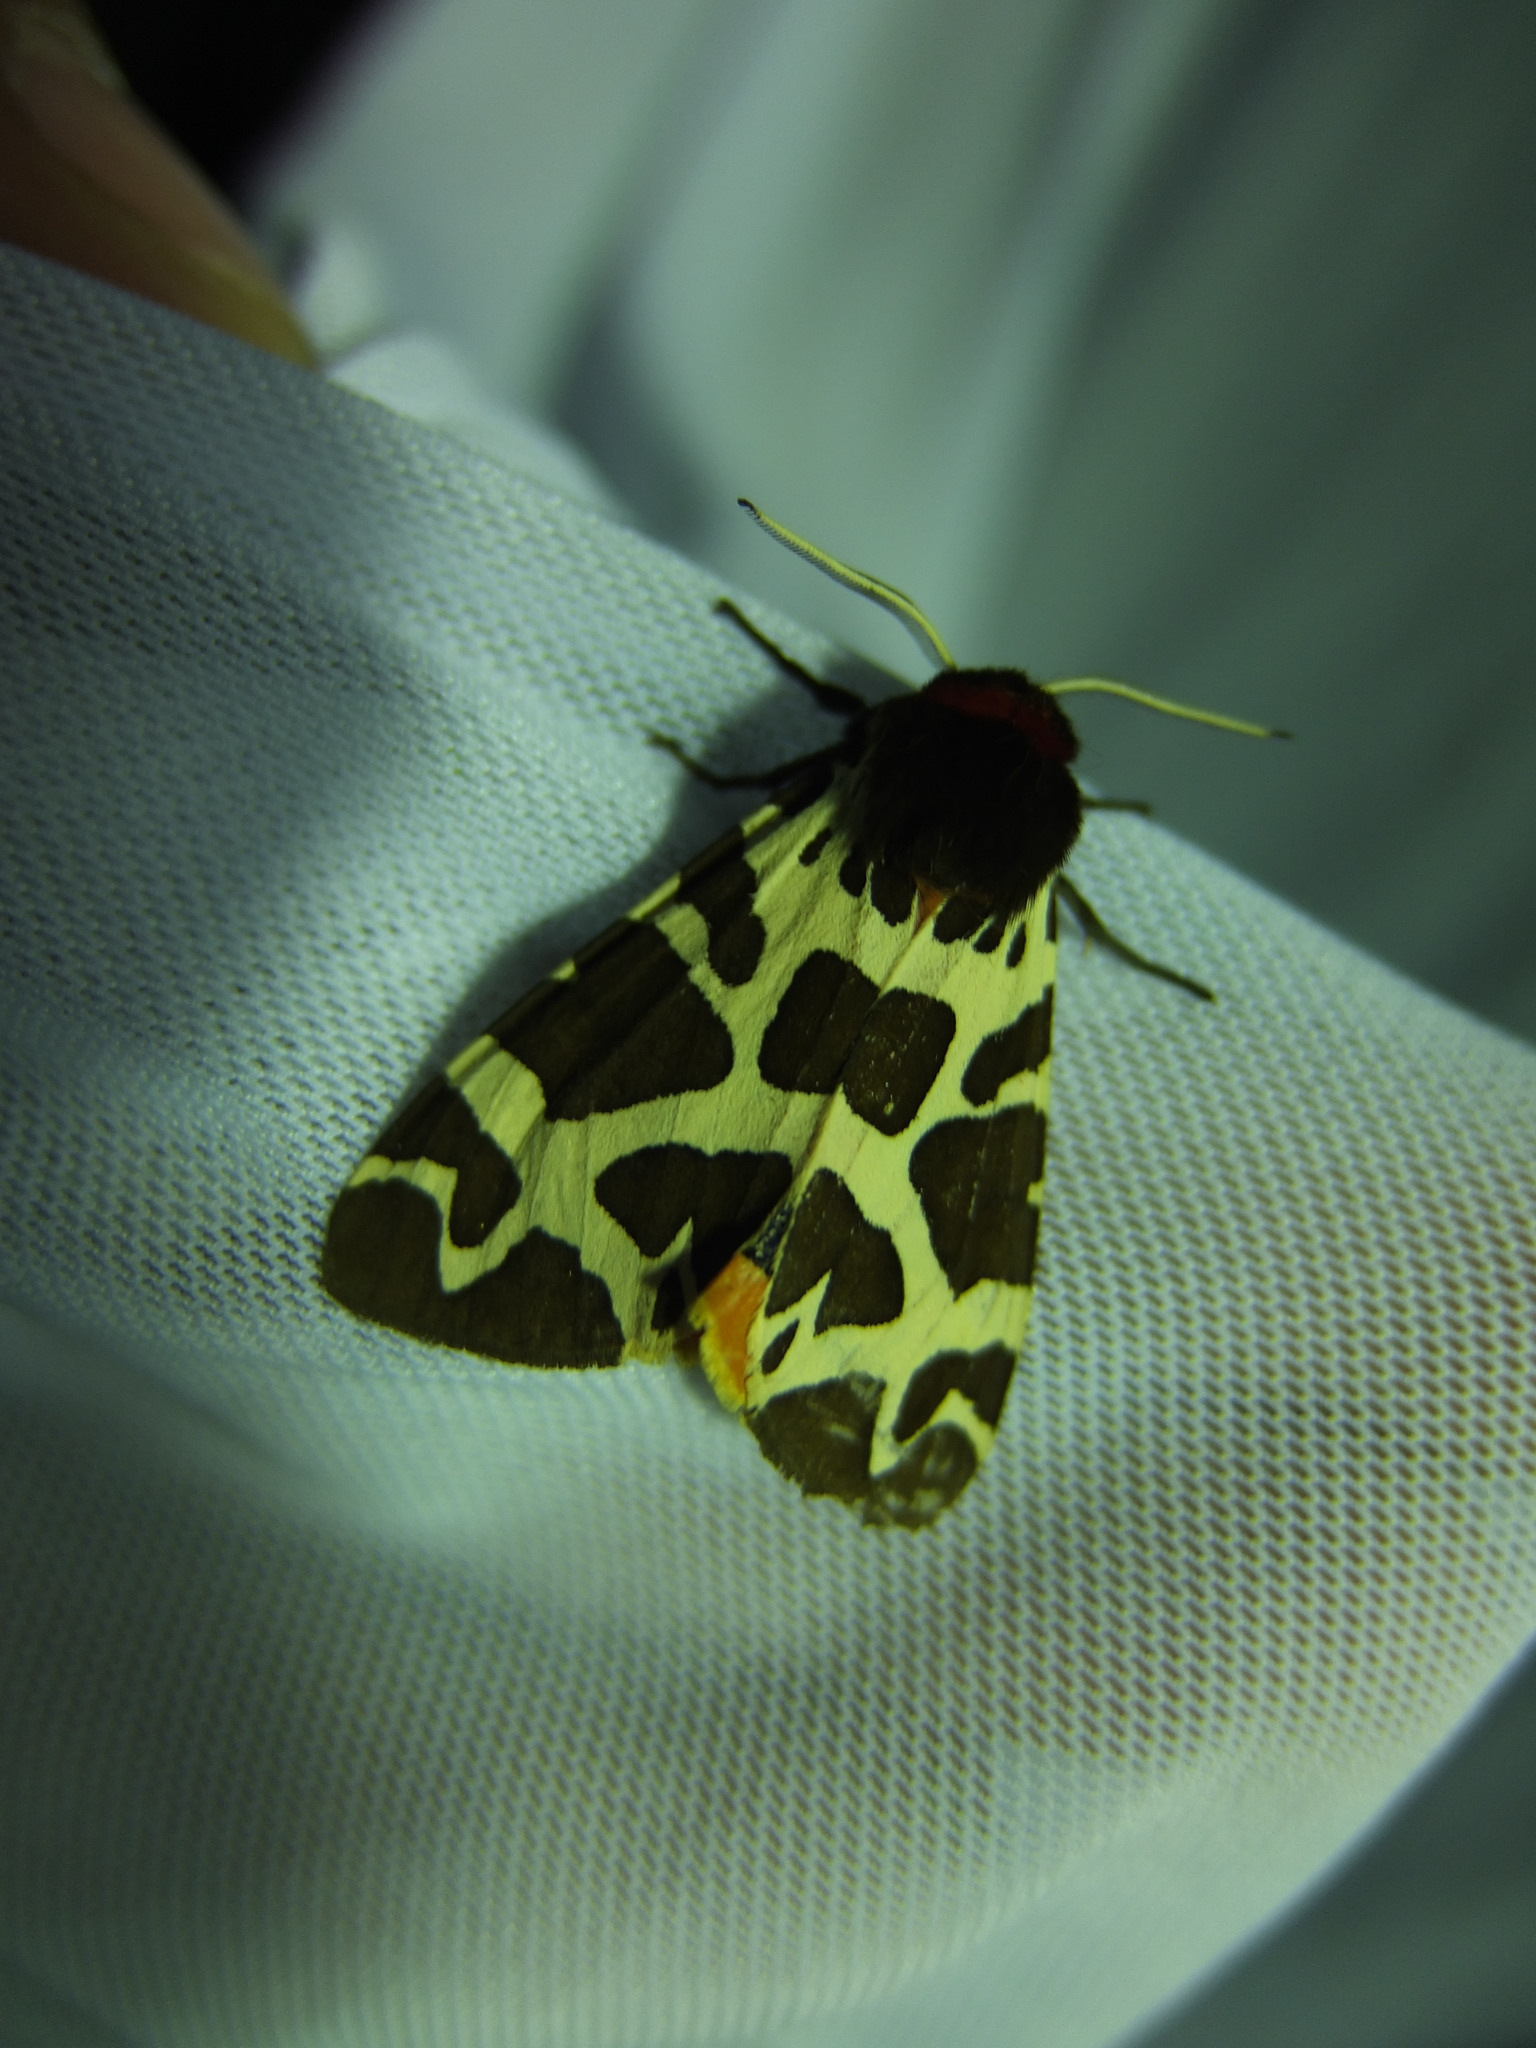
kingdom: Animalia
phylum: Arthropoda
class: Insecta
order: Lepidoptera
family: Erebidae
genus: Arctia
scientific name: Arctia caja
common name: Garden tiger
